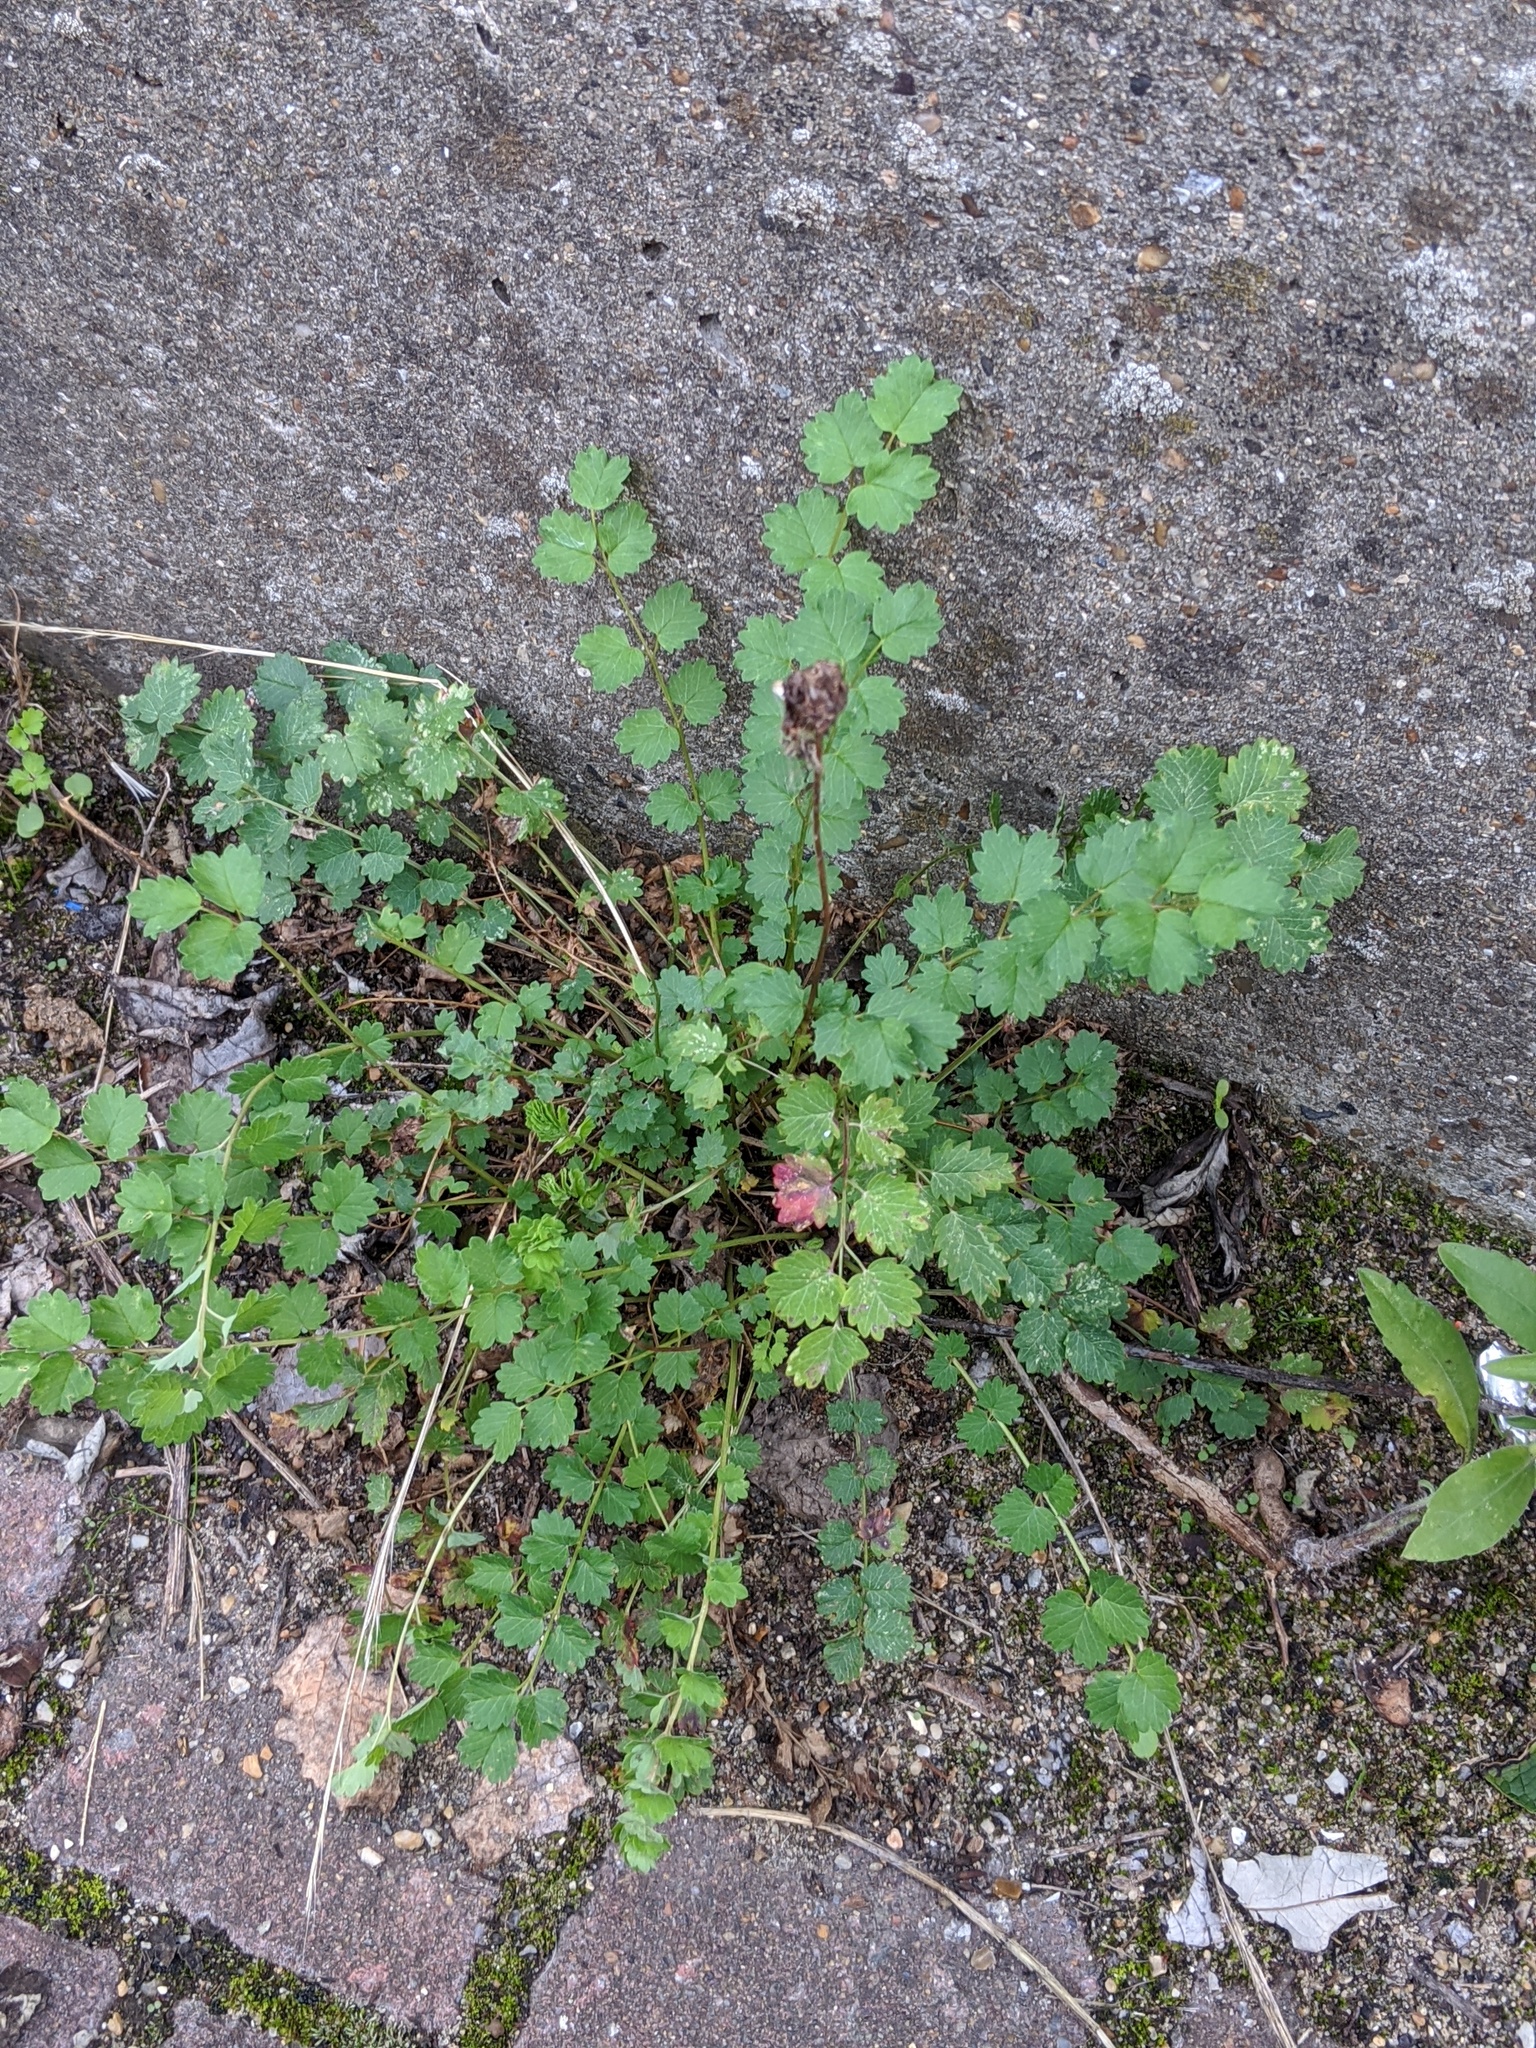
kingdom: Plantae
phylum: Tracheophyta
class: Magnoliopsida
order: Rosales
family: Rosaceae
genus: Poterium
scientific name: Poterium sanguisorba
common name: Salad burnet
